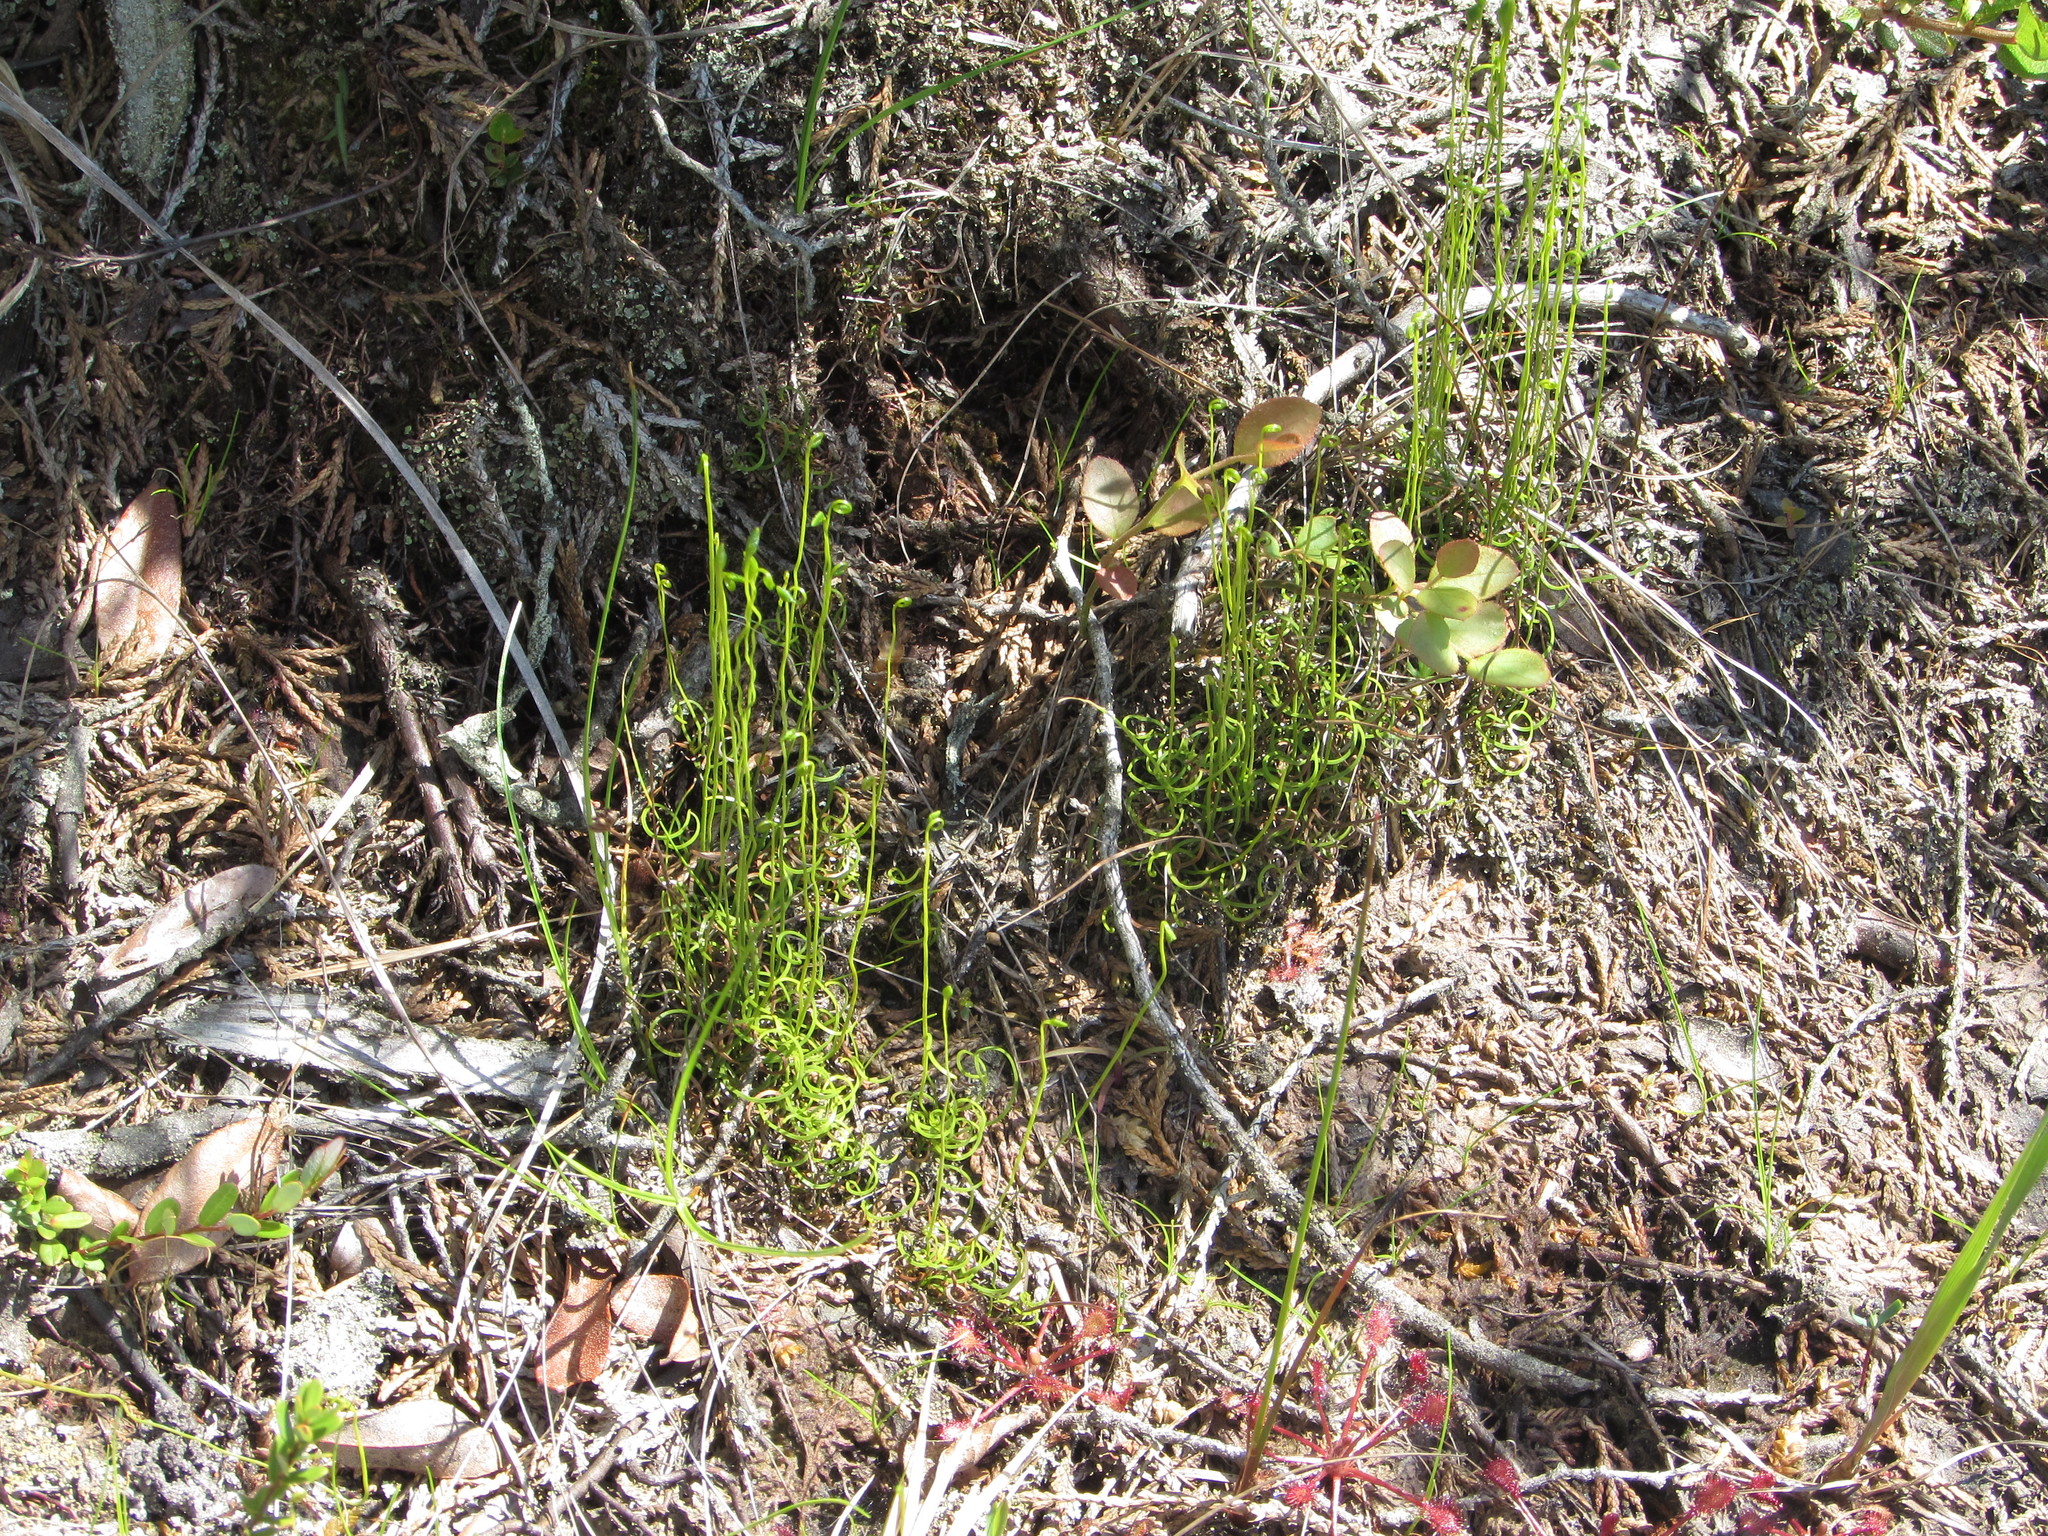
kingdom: Plantae
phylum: Tracheophyta
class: Polypodiopsida
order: Schizaeales
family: Schizaeaceae
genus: Schizaea
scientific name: Schizaea pusilla
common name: Curly-grass fern
